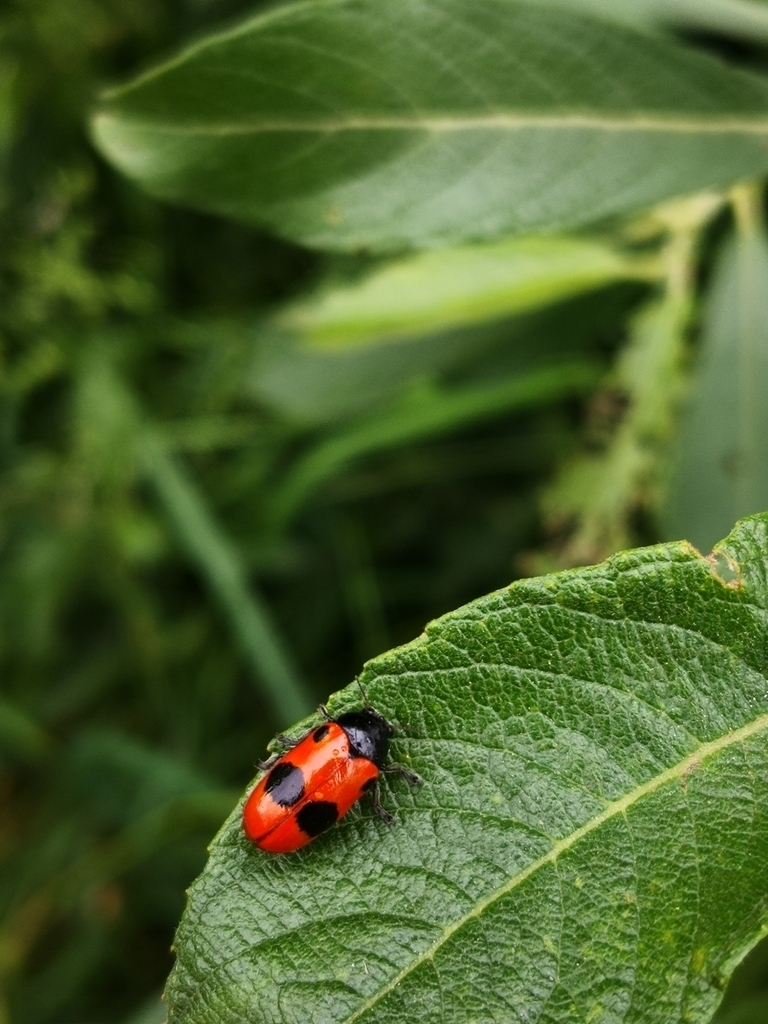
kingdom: Animalia
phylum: Arthropoda
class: Insecta
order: Coleoptera
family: Chrysomelidae
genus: Clytra
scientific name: Clytra laeviuscula
